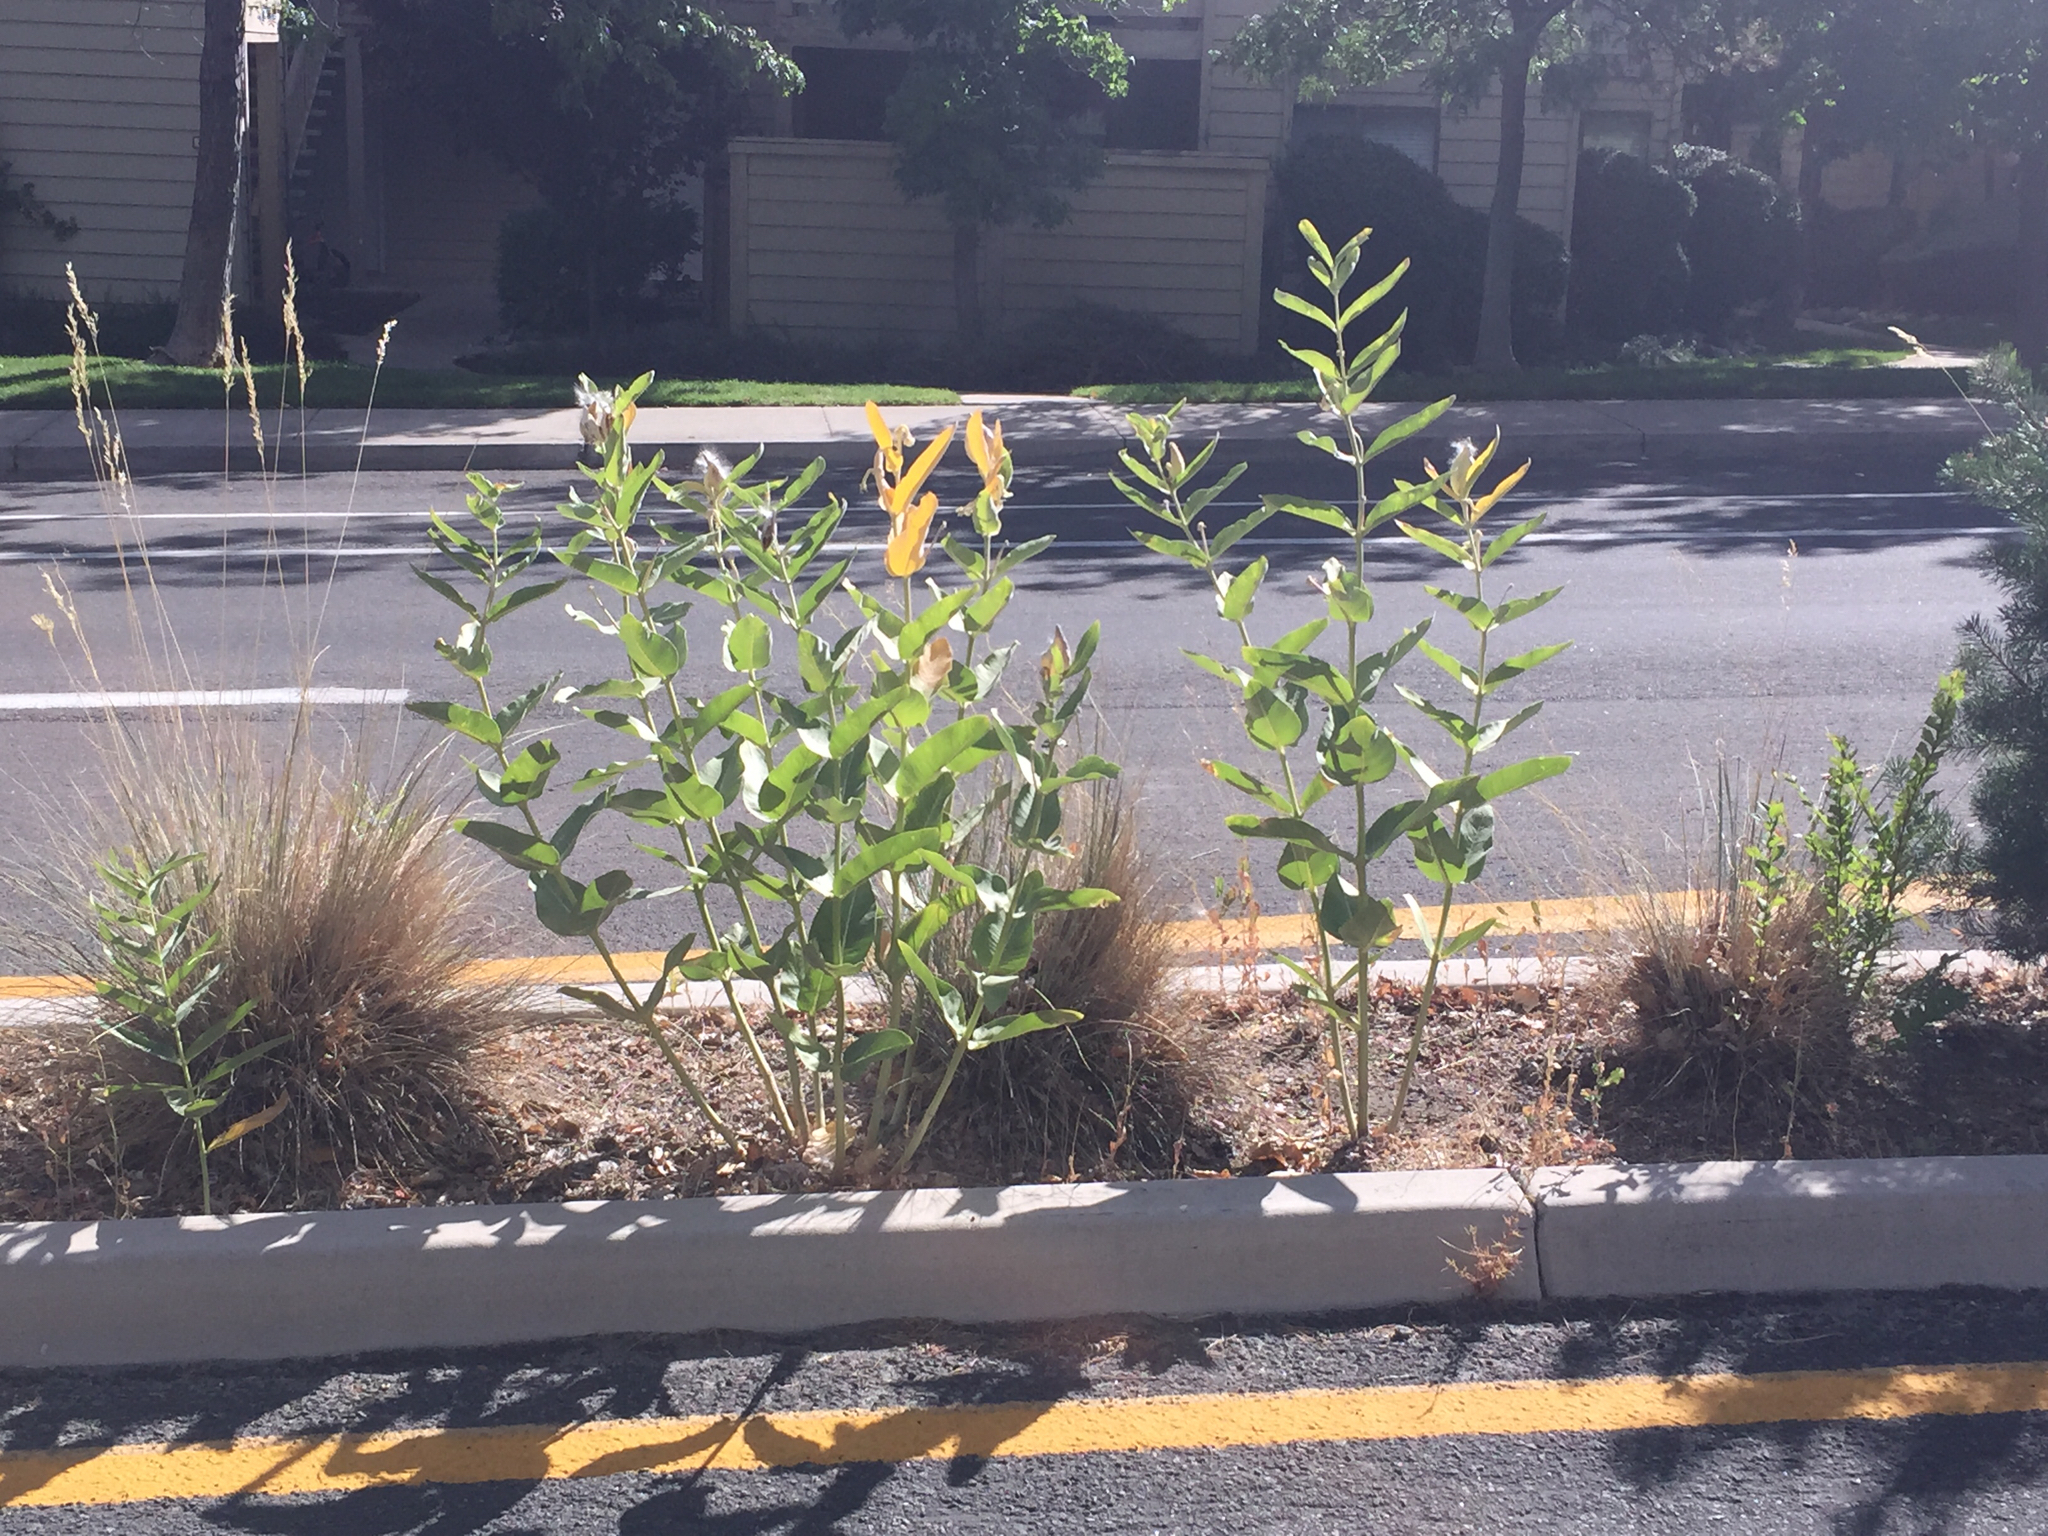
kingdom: Plantae
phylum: Tracheophyta
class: Magnoliopsida
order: Gentianales
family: Apocynaceae
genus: Asclepias
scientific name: Asclepias speciosa
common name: Showy milkweed
